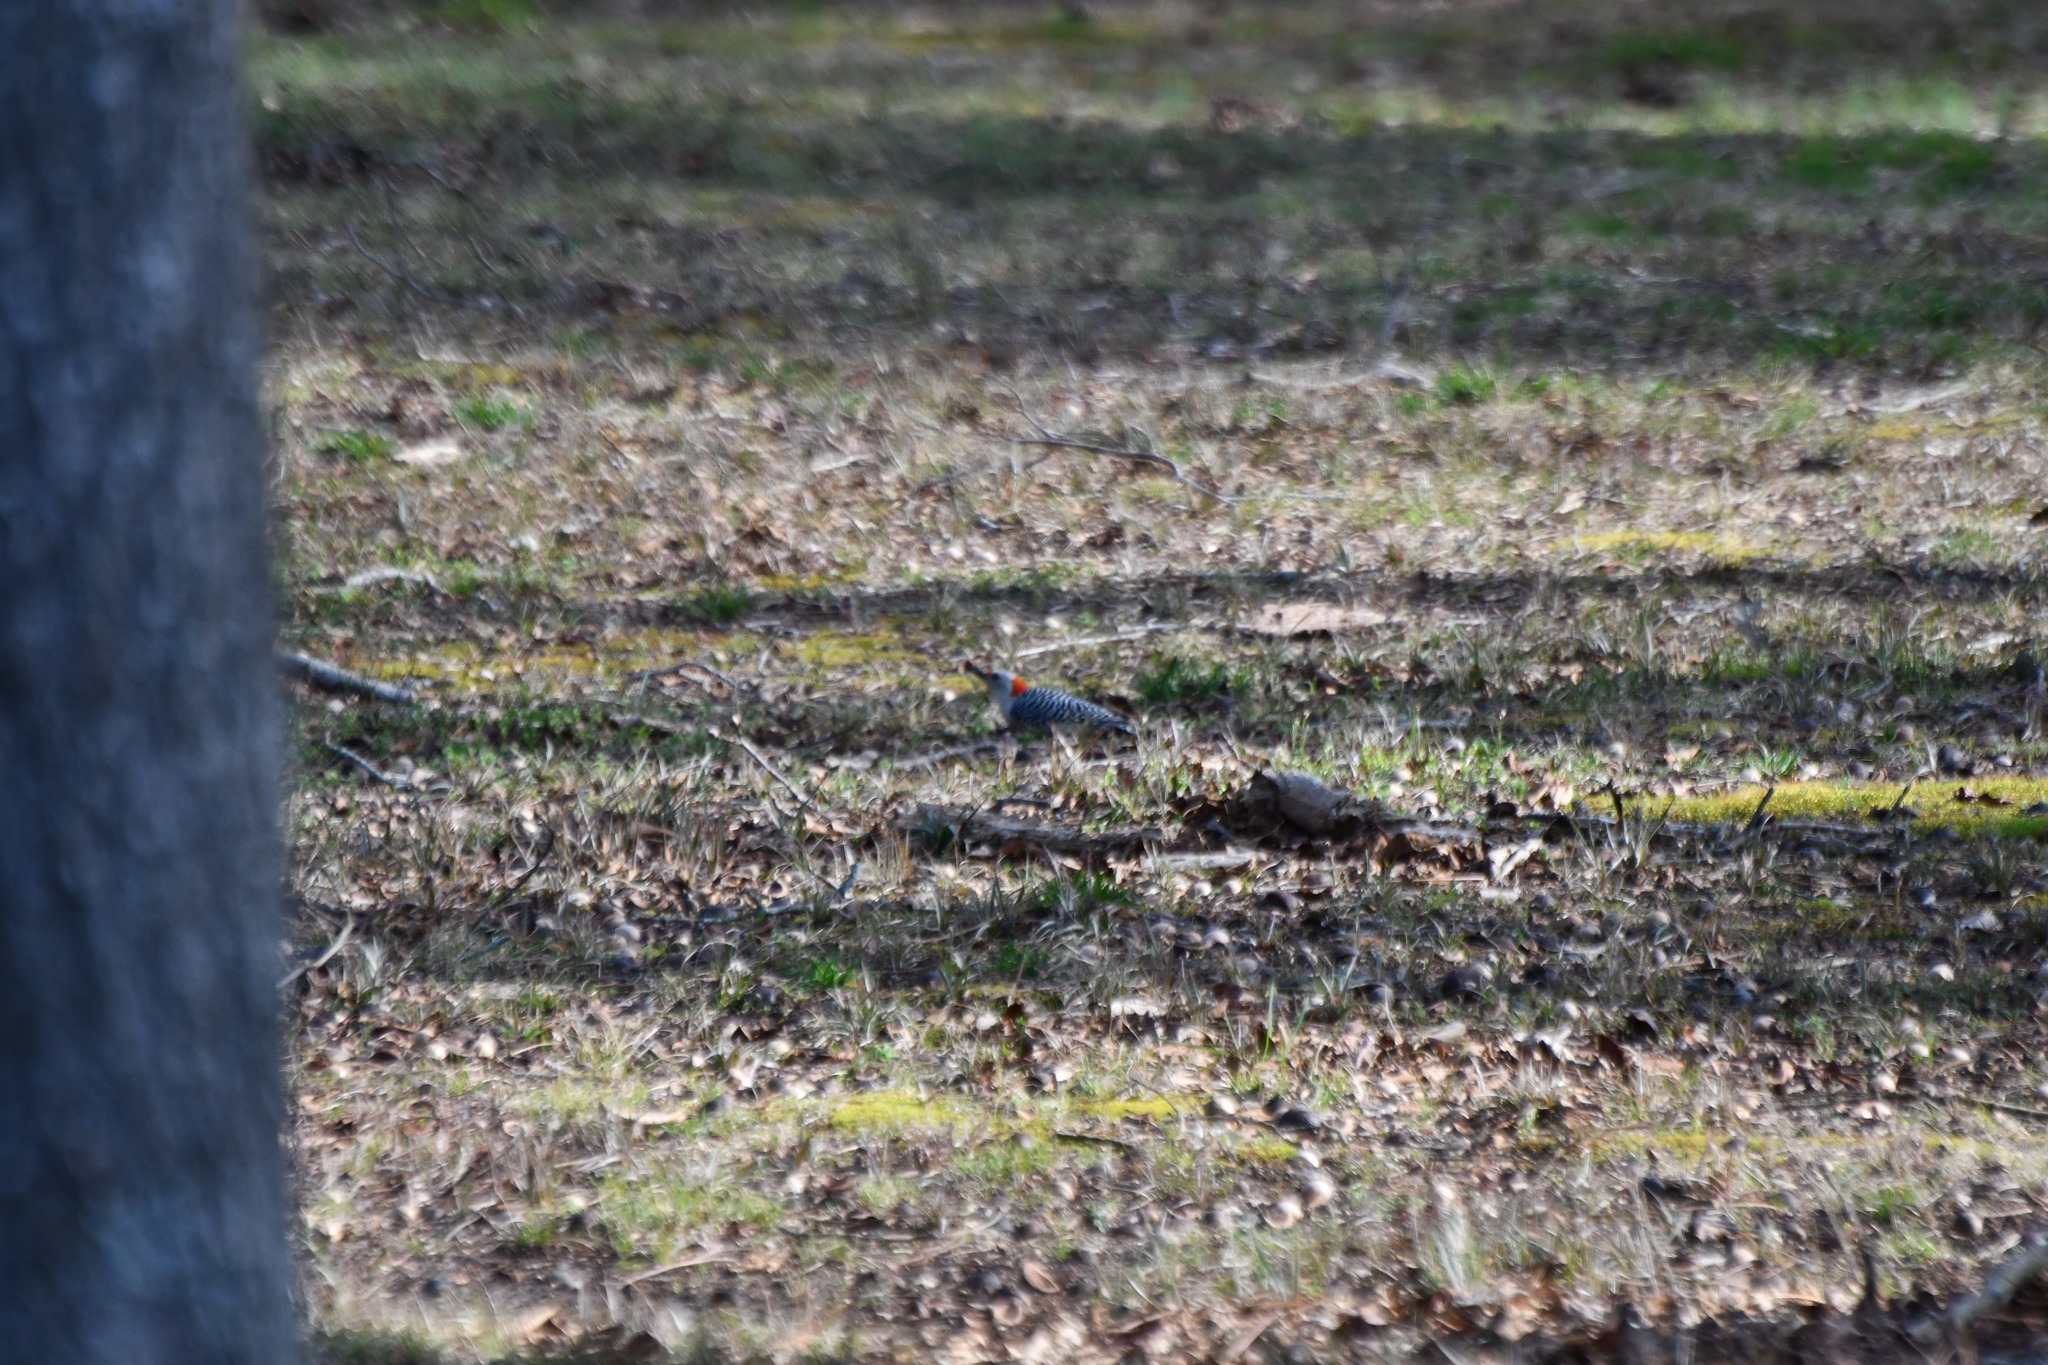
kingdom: Animalia
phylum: Chordata
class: Aves
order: Piciformes
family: Picidae
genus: Melanerpes
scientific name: Melanerpes carolinus
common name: Red-bellied woodpecker
